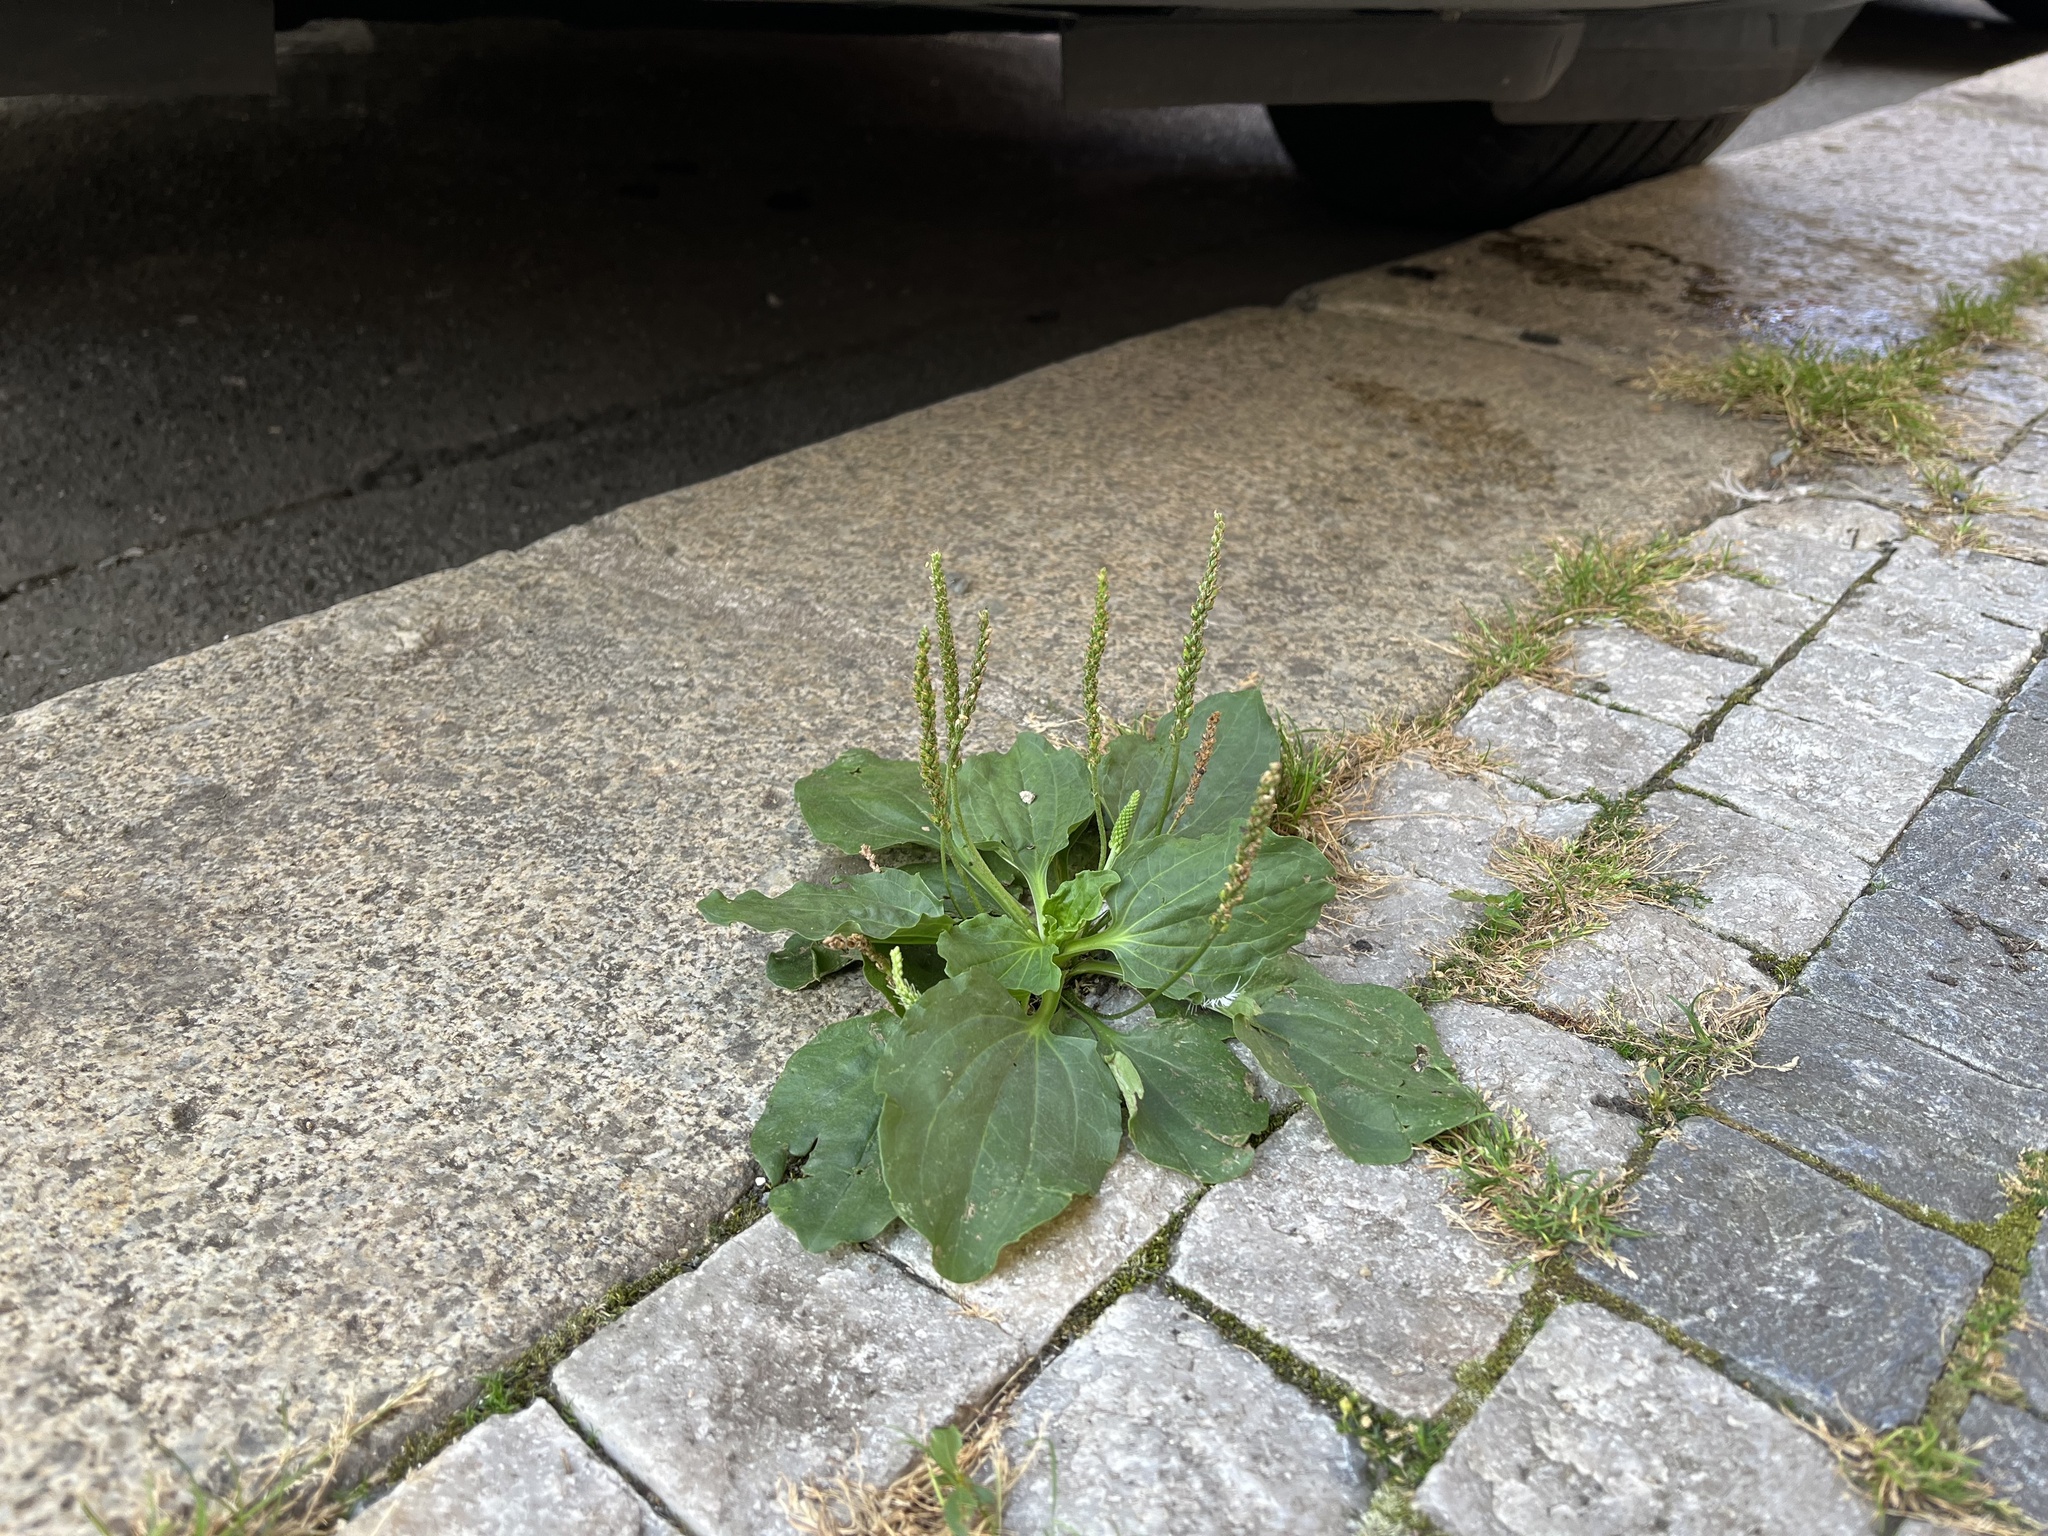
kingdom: Plantae
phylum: Tracheophyta
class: Magnoliopsida
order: Lamiales
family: Plantaginaceae
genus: Plantago
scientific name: Plantago major
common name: Common plantain
